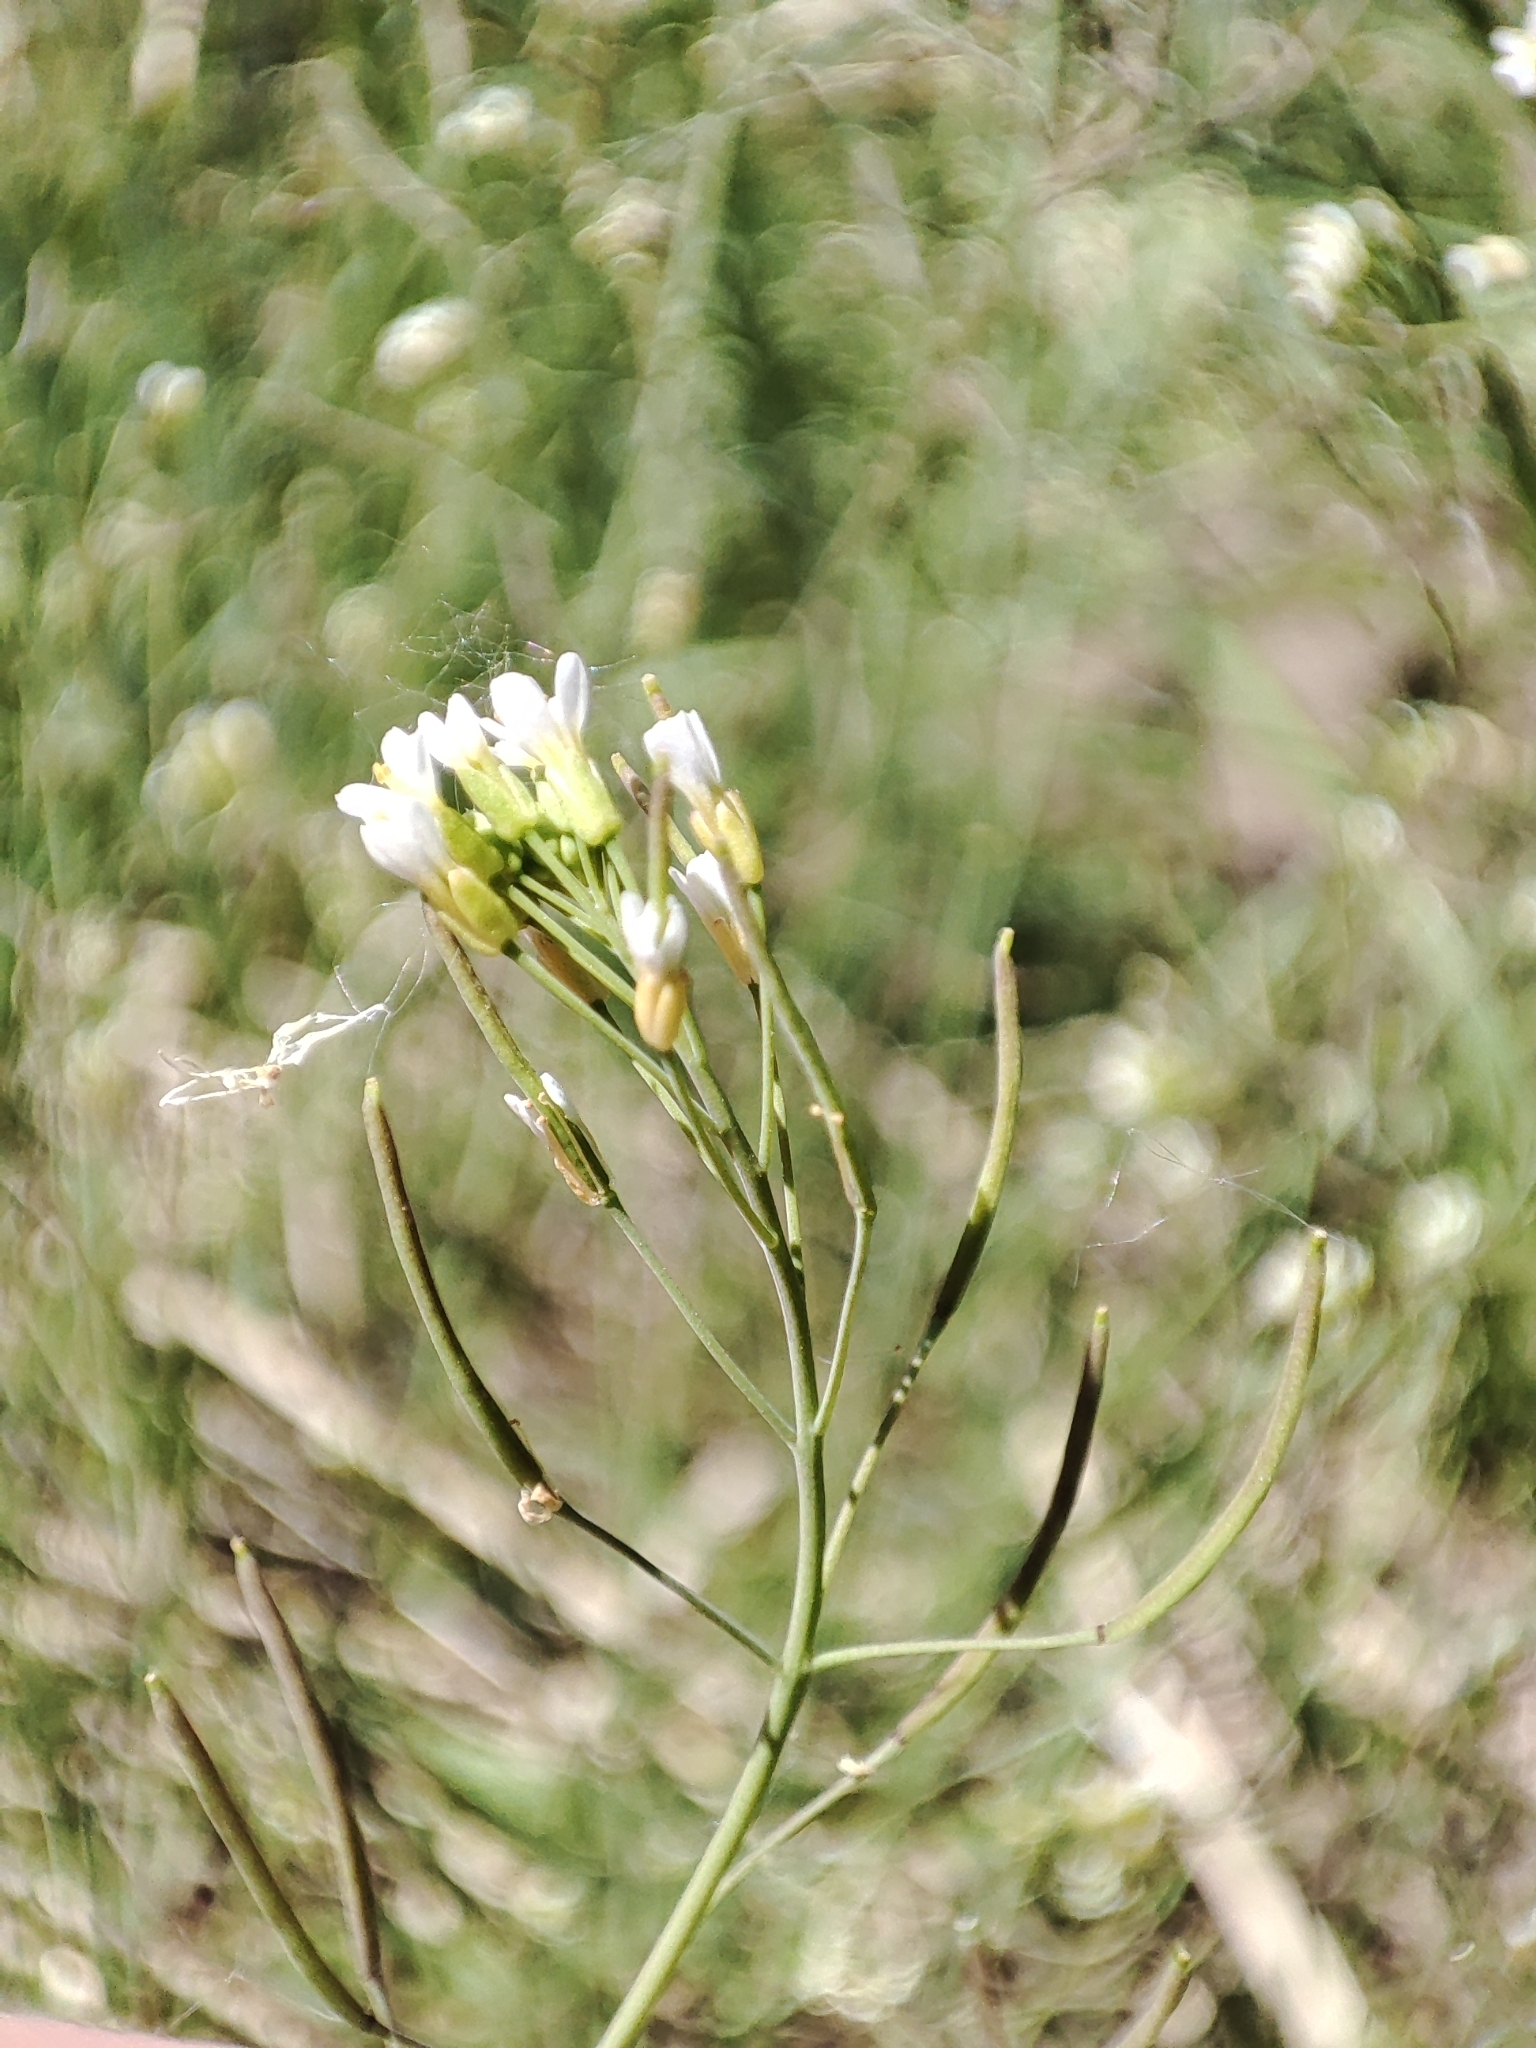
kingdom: Plantae
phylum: Tracheophyta
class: Magnoliopsida
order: Brassicales
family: Brassicaceae
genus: Arabidopsis
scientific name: Arabidopsis thaliana
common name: Thale cress
